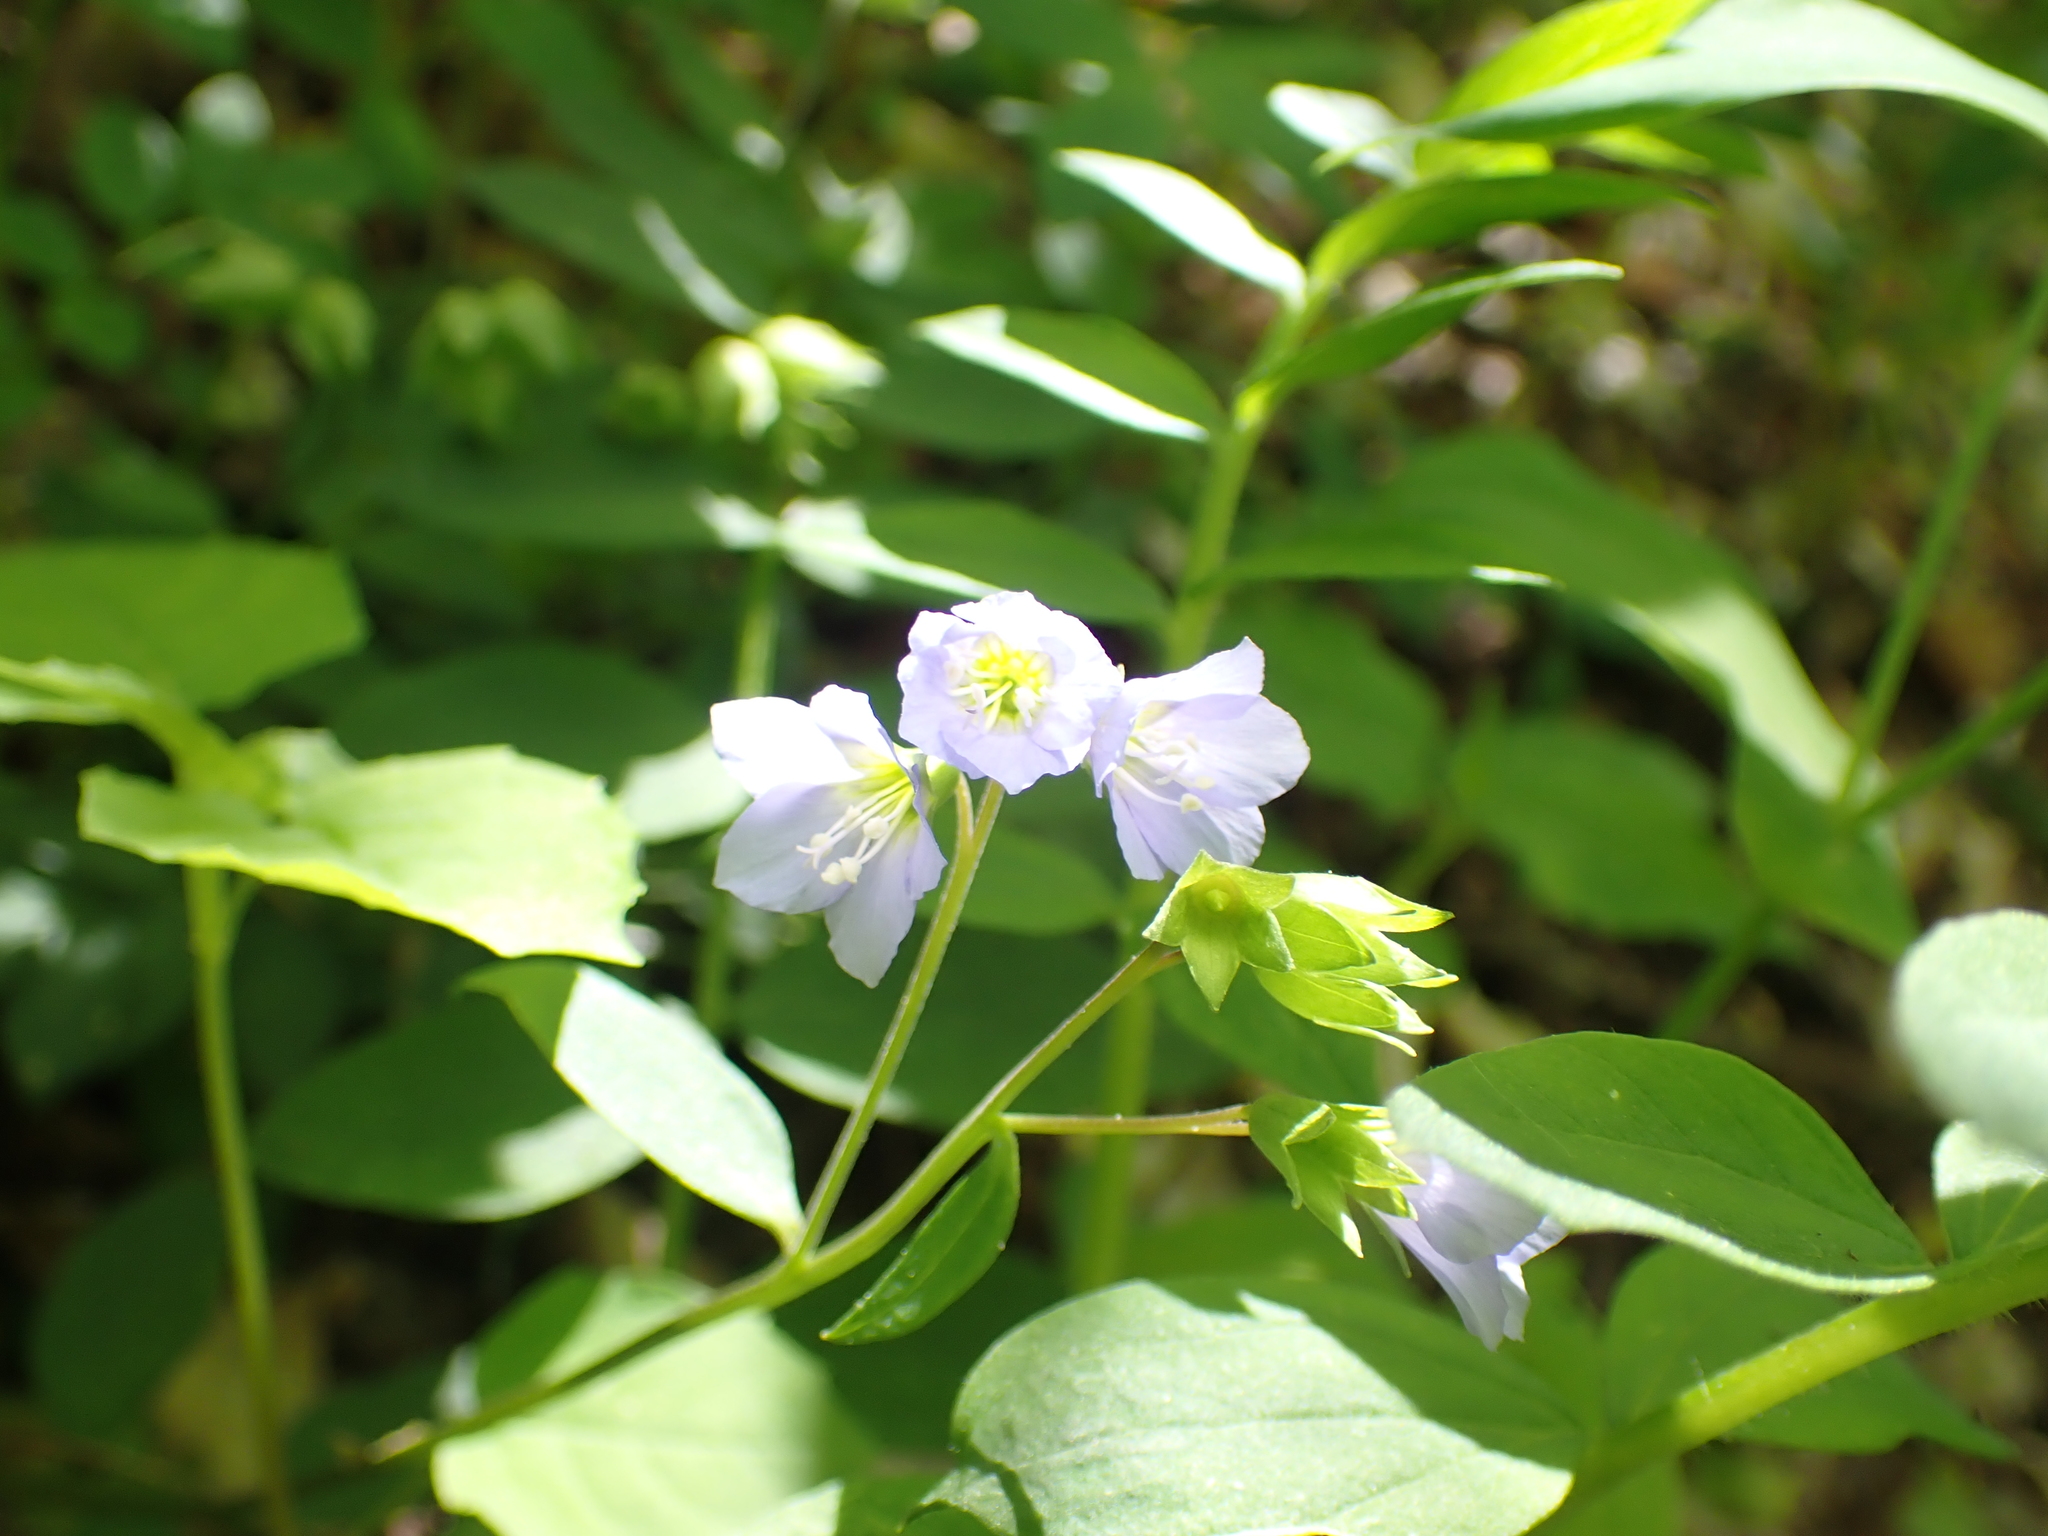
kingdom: Plantae
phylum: Tracheophyta
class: Magnoliopsida
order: Ericales
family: Polemoniaceae
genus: Polemonium
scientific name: Polemonium reptans
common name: Creeping jacob's-ladder
